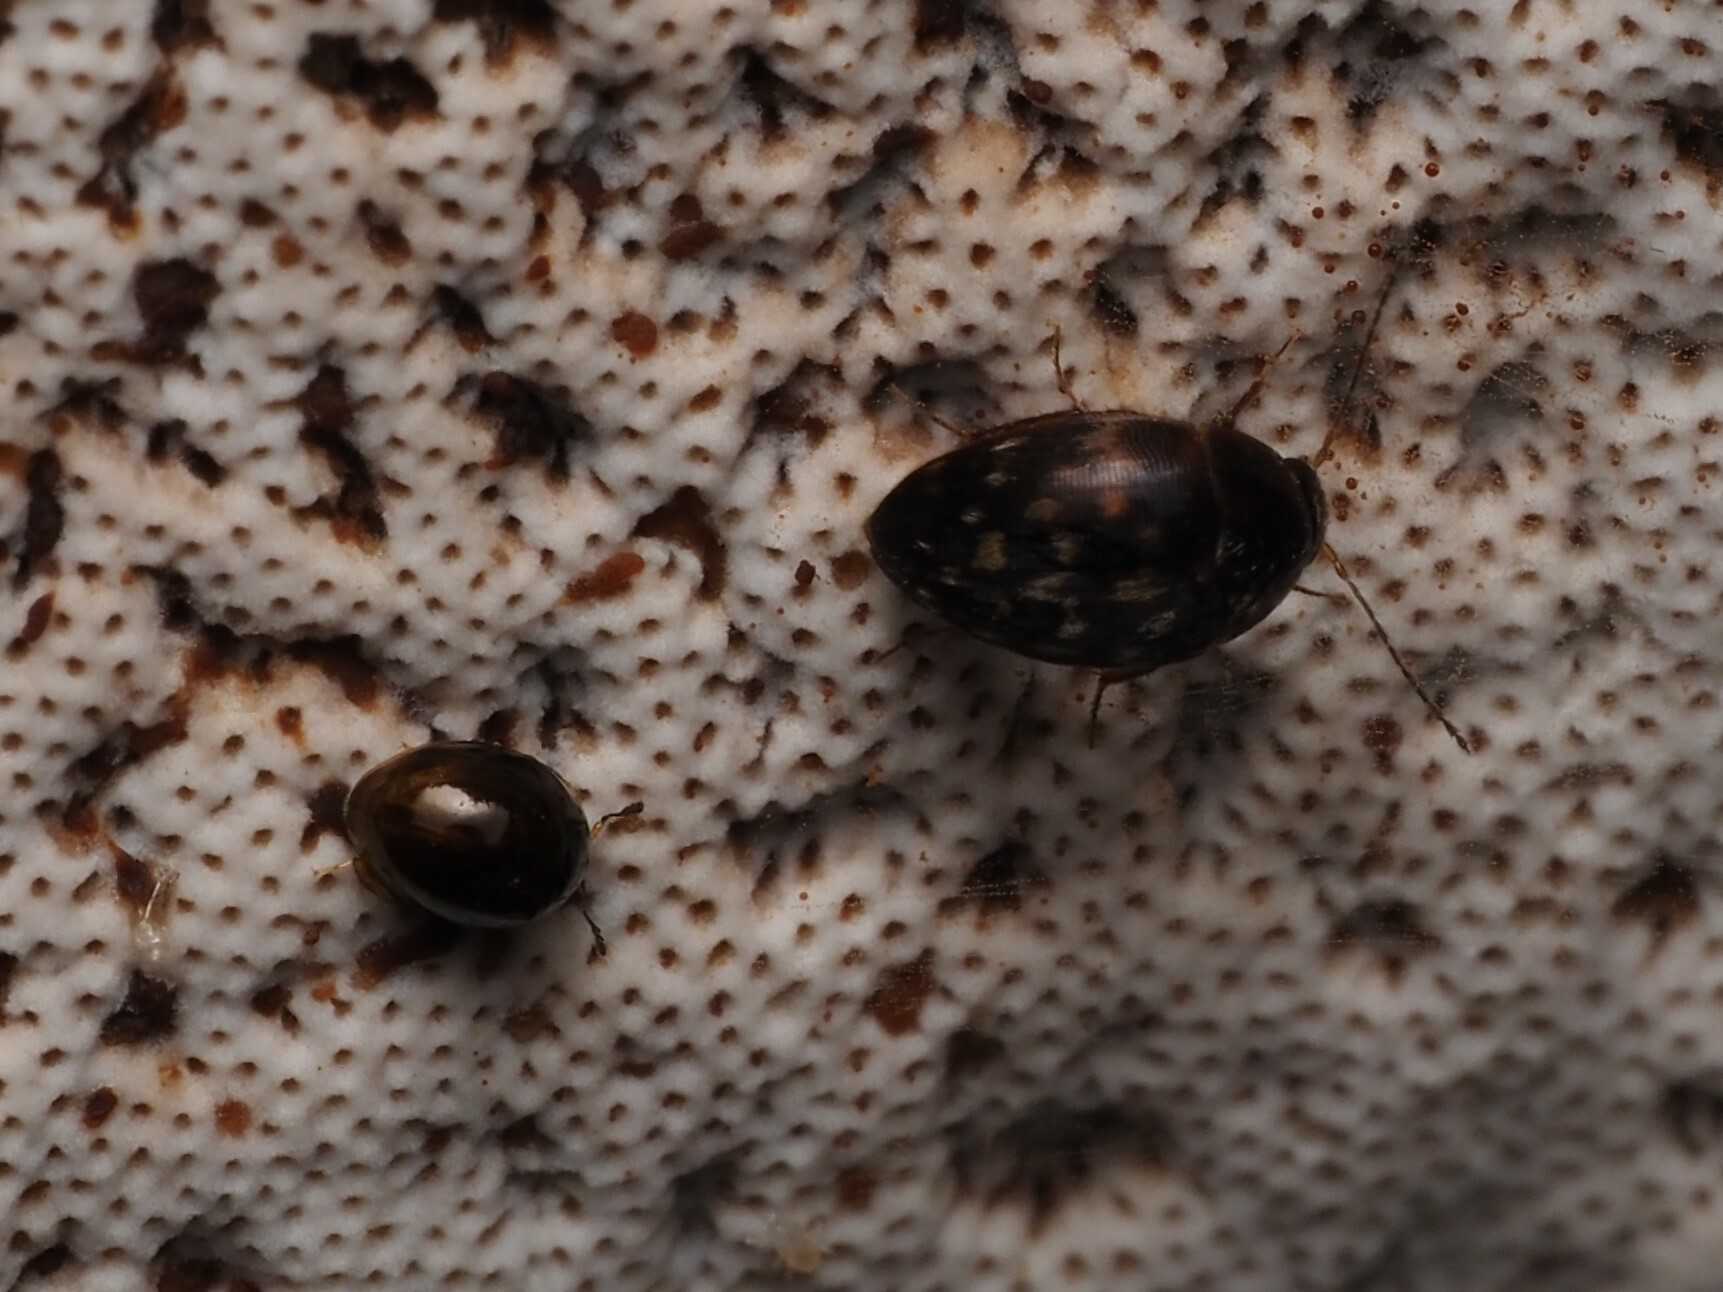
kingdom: Animalia
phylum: Arthropoda
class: Insecta
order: Coleoptera
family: Leiodidae
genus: Zearagytodes
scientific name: Zearagytodes maculifer
